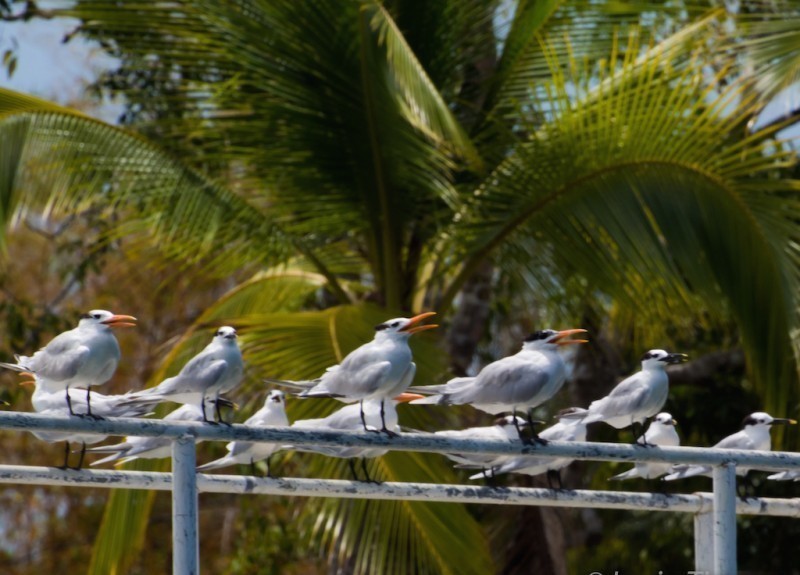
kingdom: Animalia
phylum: Chordata
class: Aves
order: Charadriiformes
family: Laridae
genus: Thalasseus
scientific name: Thalasseus maximus
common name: Royal tern
